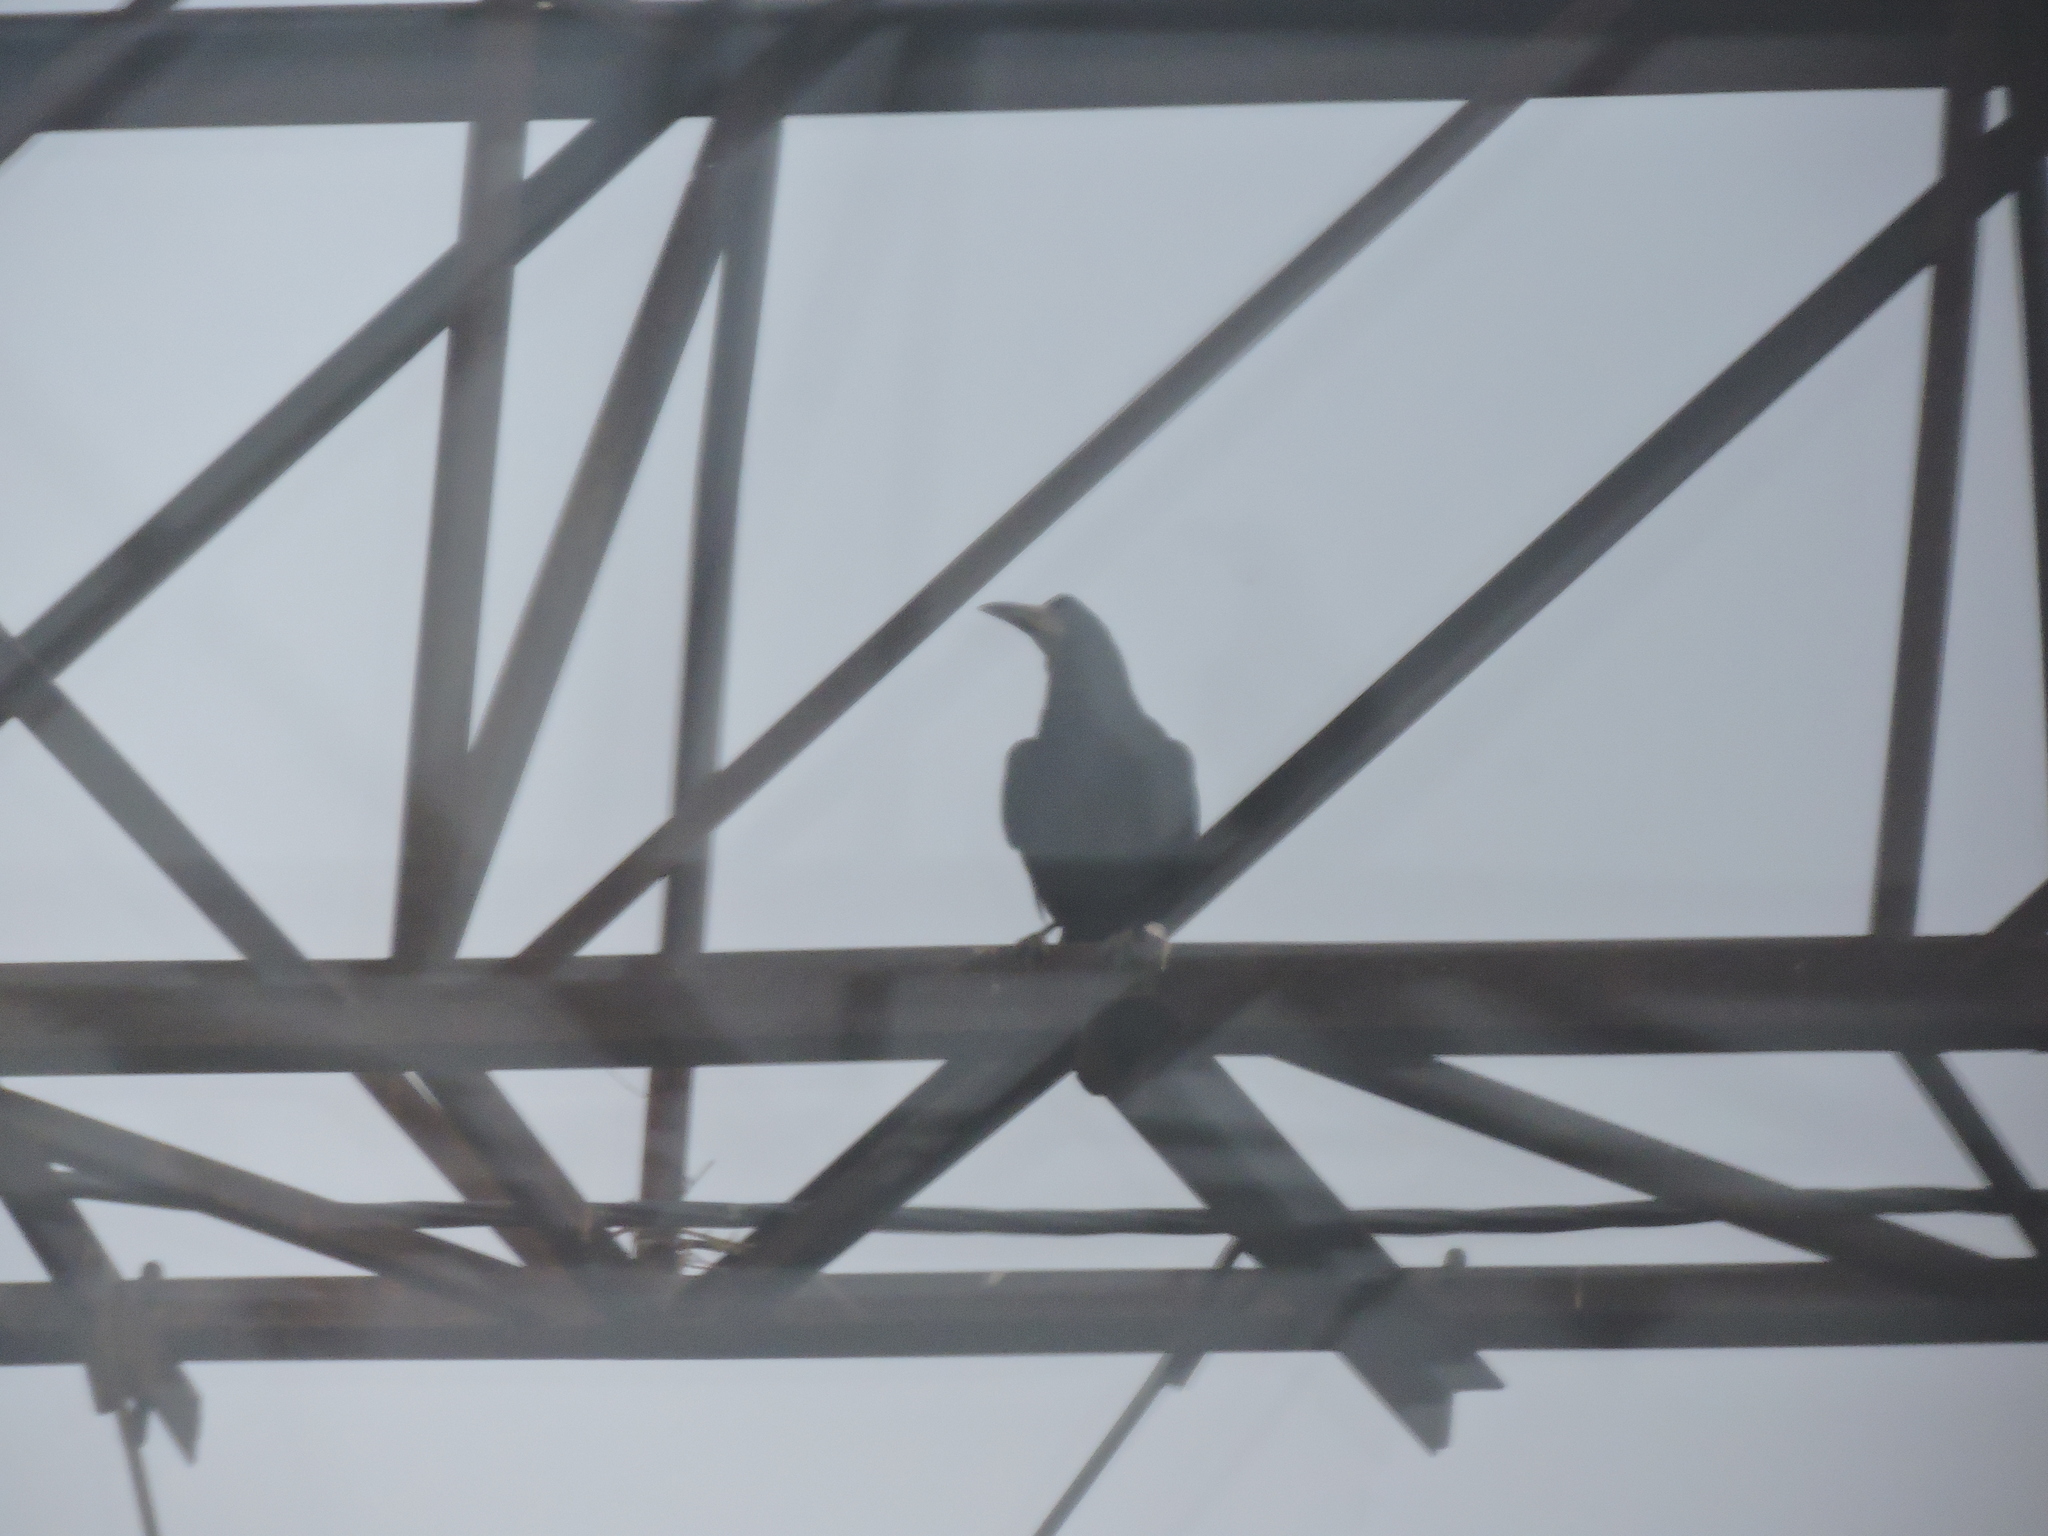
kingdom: Animalia
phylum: Chordata
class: Aves
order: Passeriformes
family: Corvidae
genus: Corvus
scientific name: Corvus frugilegus
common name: Rook
